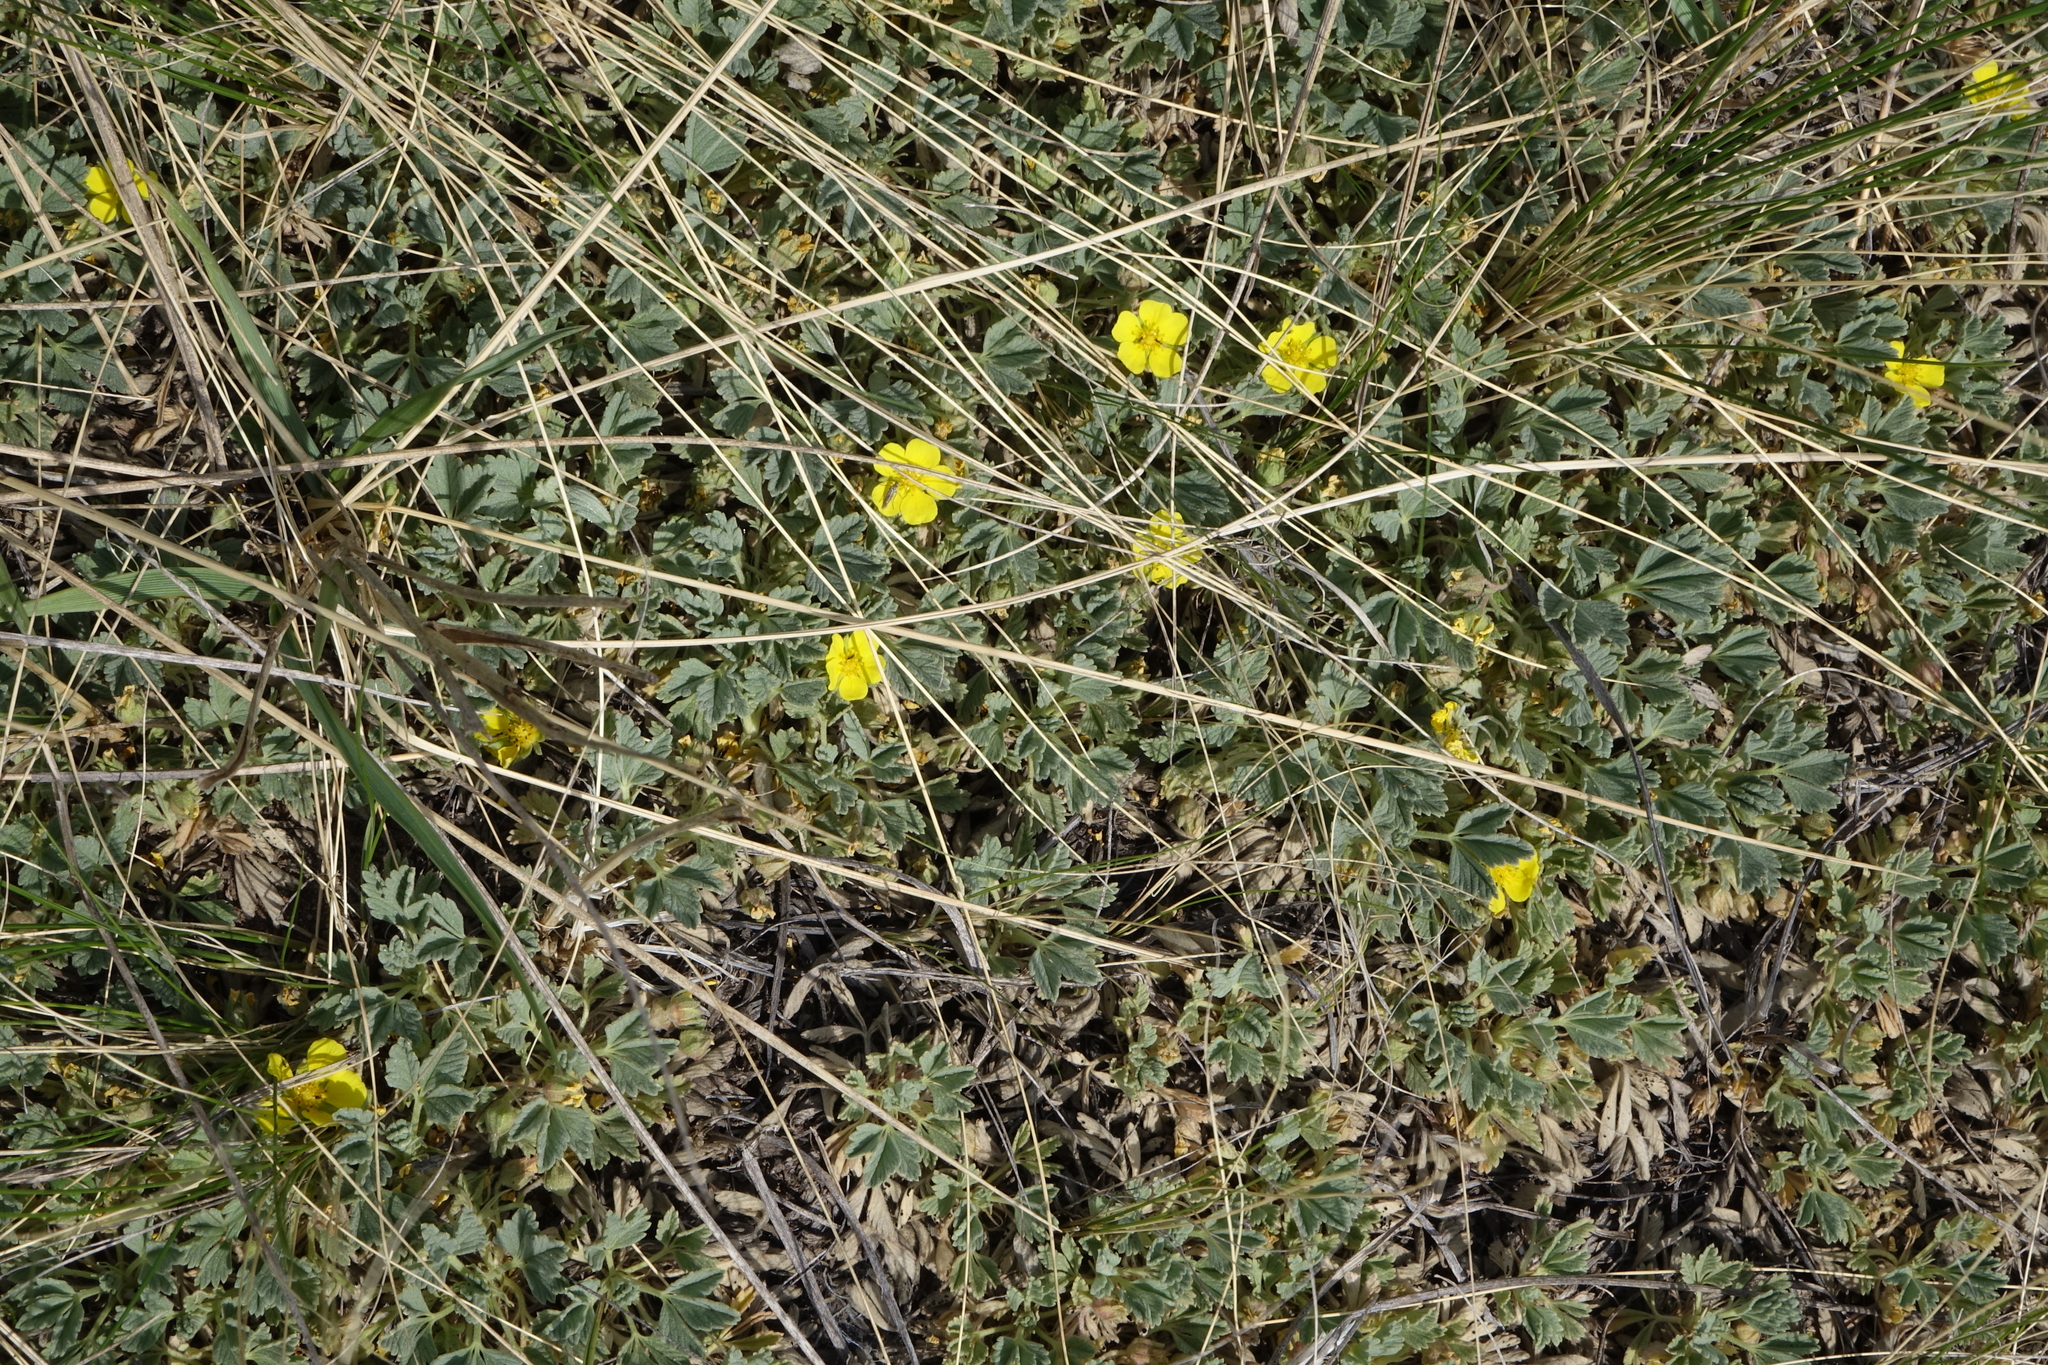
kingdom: Plantae
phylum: Tracheophyta
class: Magnoliopsida
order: Rosales
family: Rosaceae
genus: Potentilla
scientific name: Potentilla acaulis
